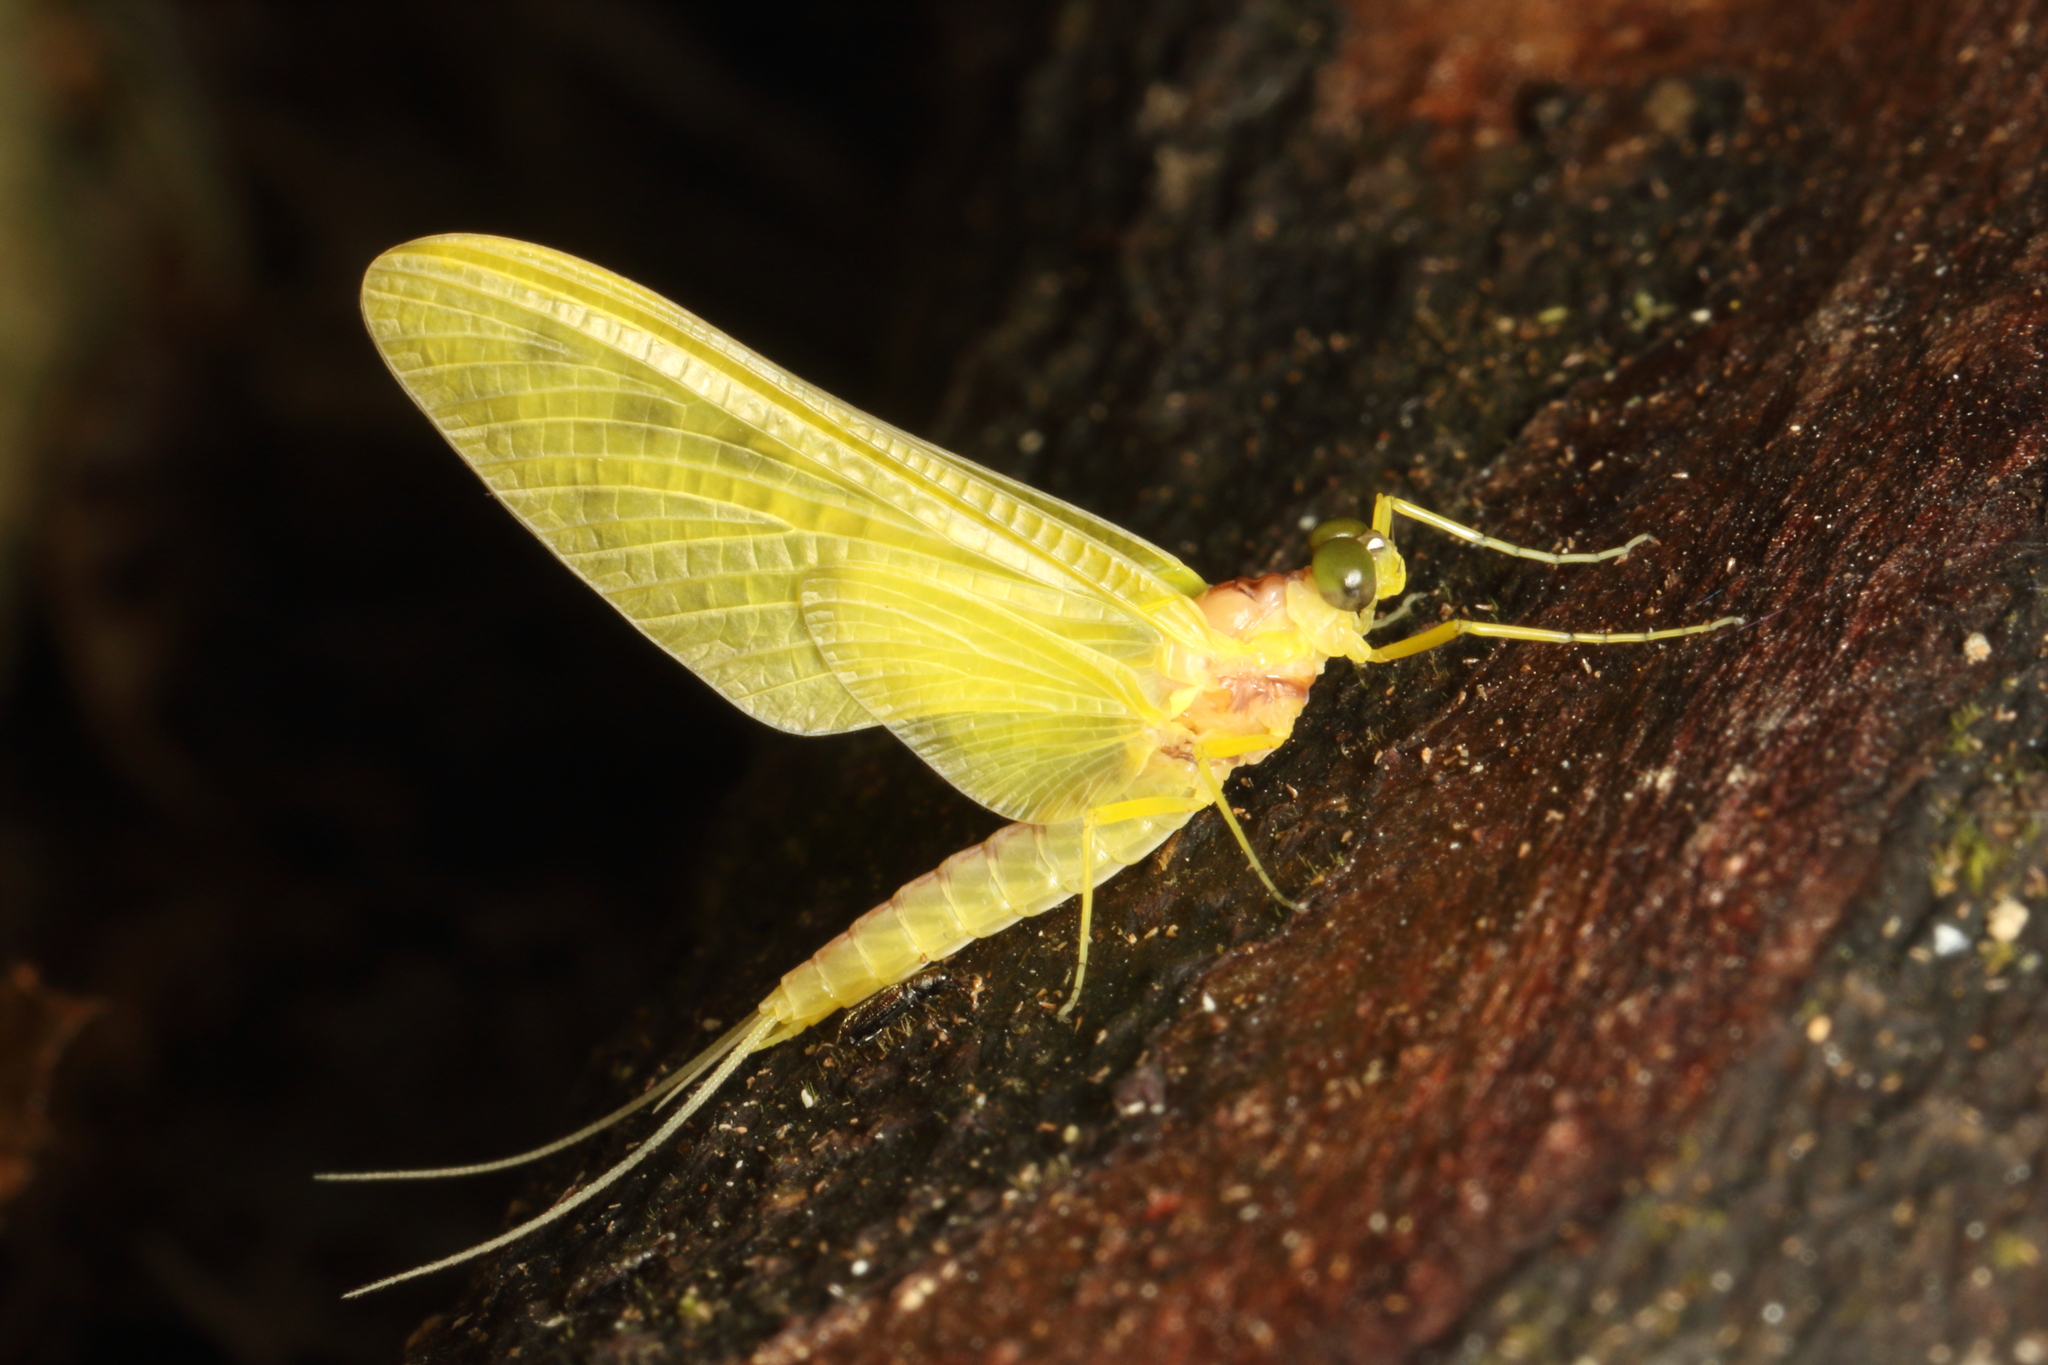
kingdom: Animalia
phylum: Arthropoda
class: Insecta
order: Ephemeroptera
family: Ameletopsidae
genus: Ameletopsis
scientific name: Ameletopsis perscitus
